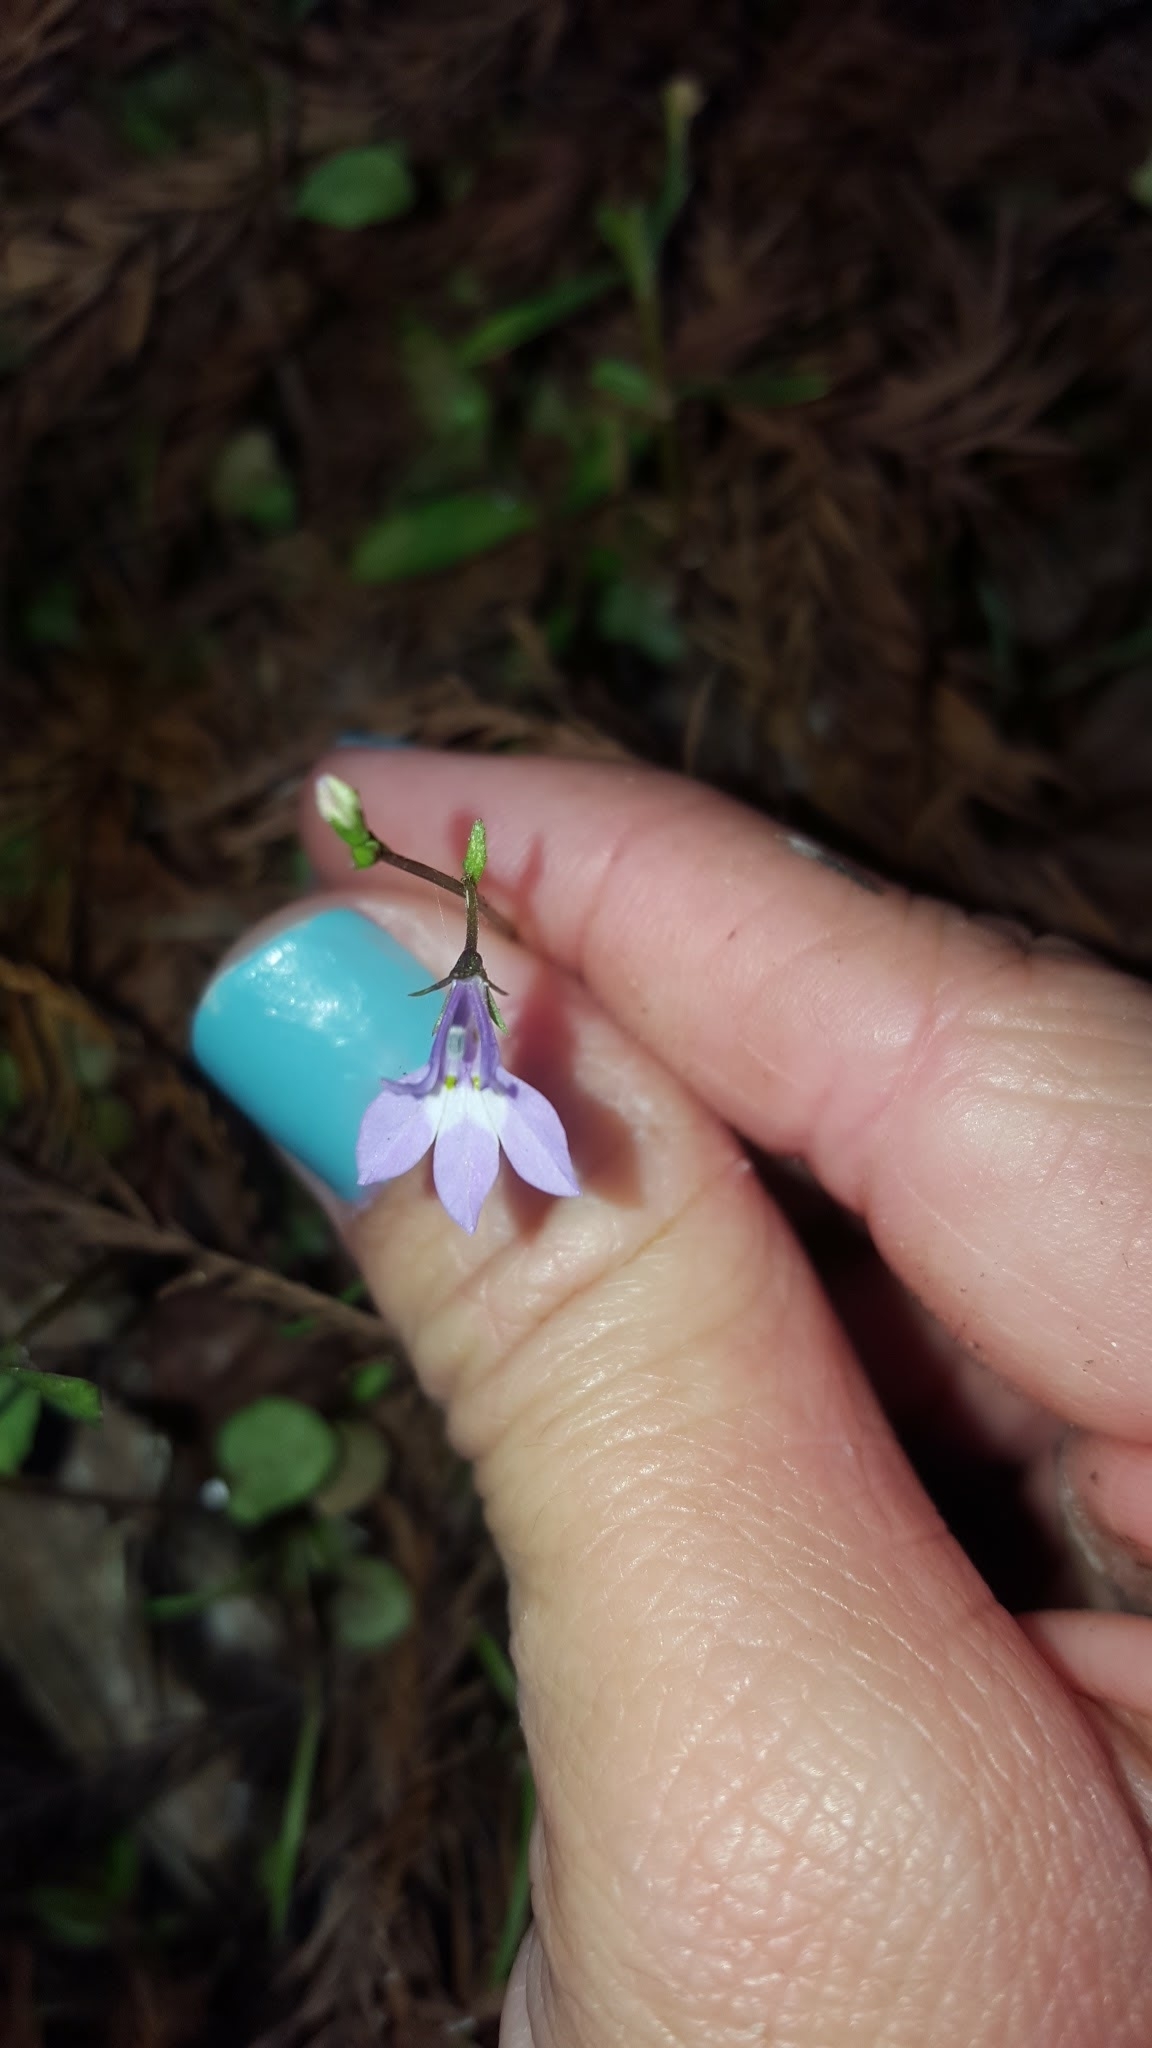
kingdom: Plantae
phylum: Tracheophyta
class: Magnoliopsida
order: Asterales
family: Campanulaceae
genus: Lobelia
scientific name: Lobelia feayana
